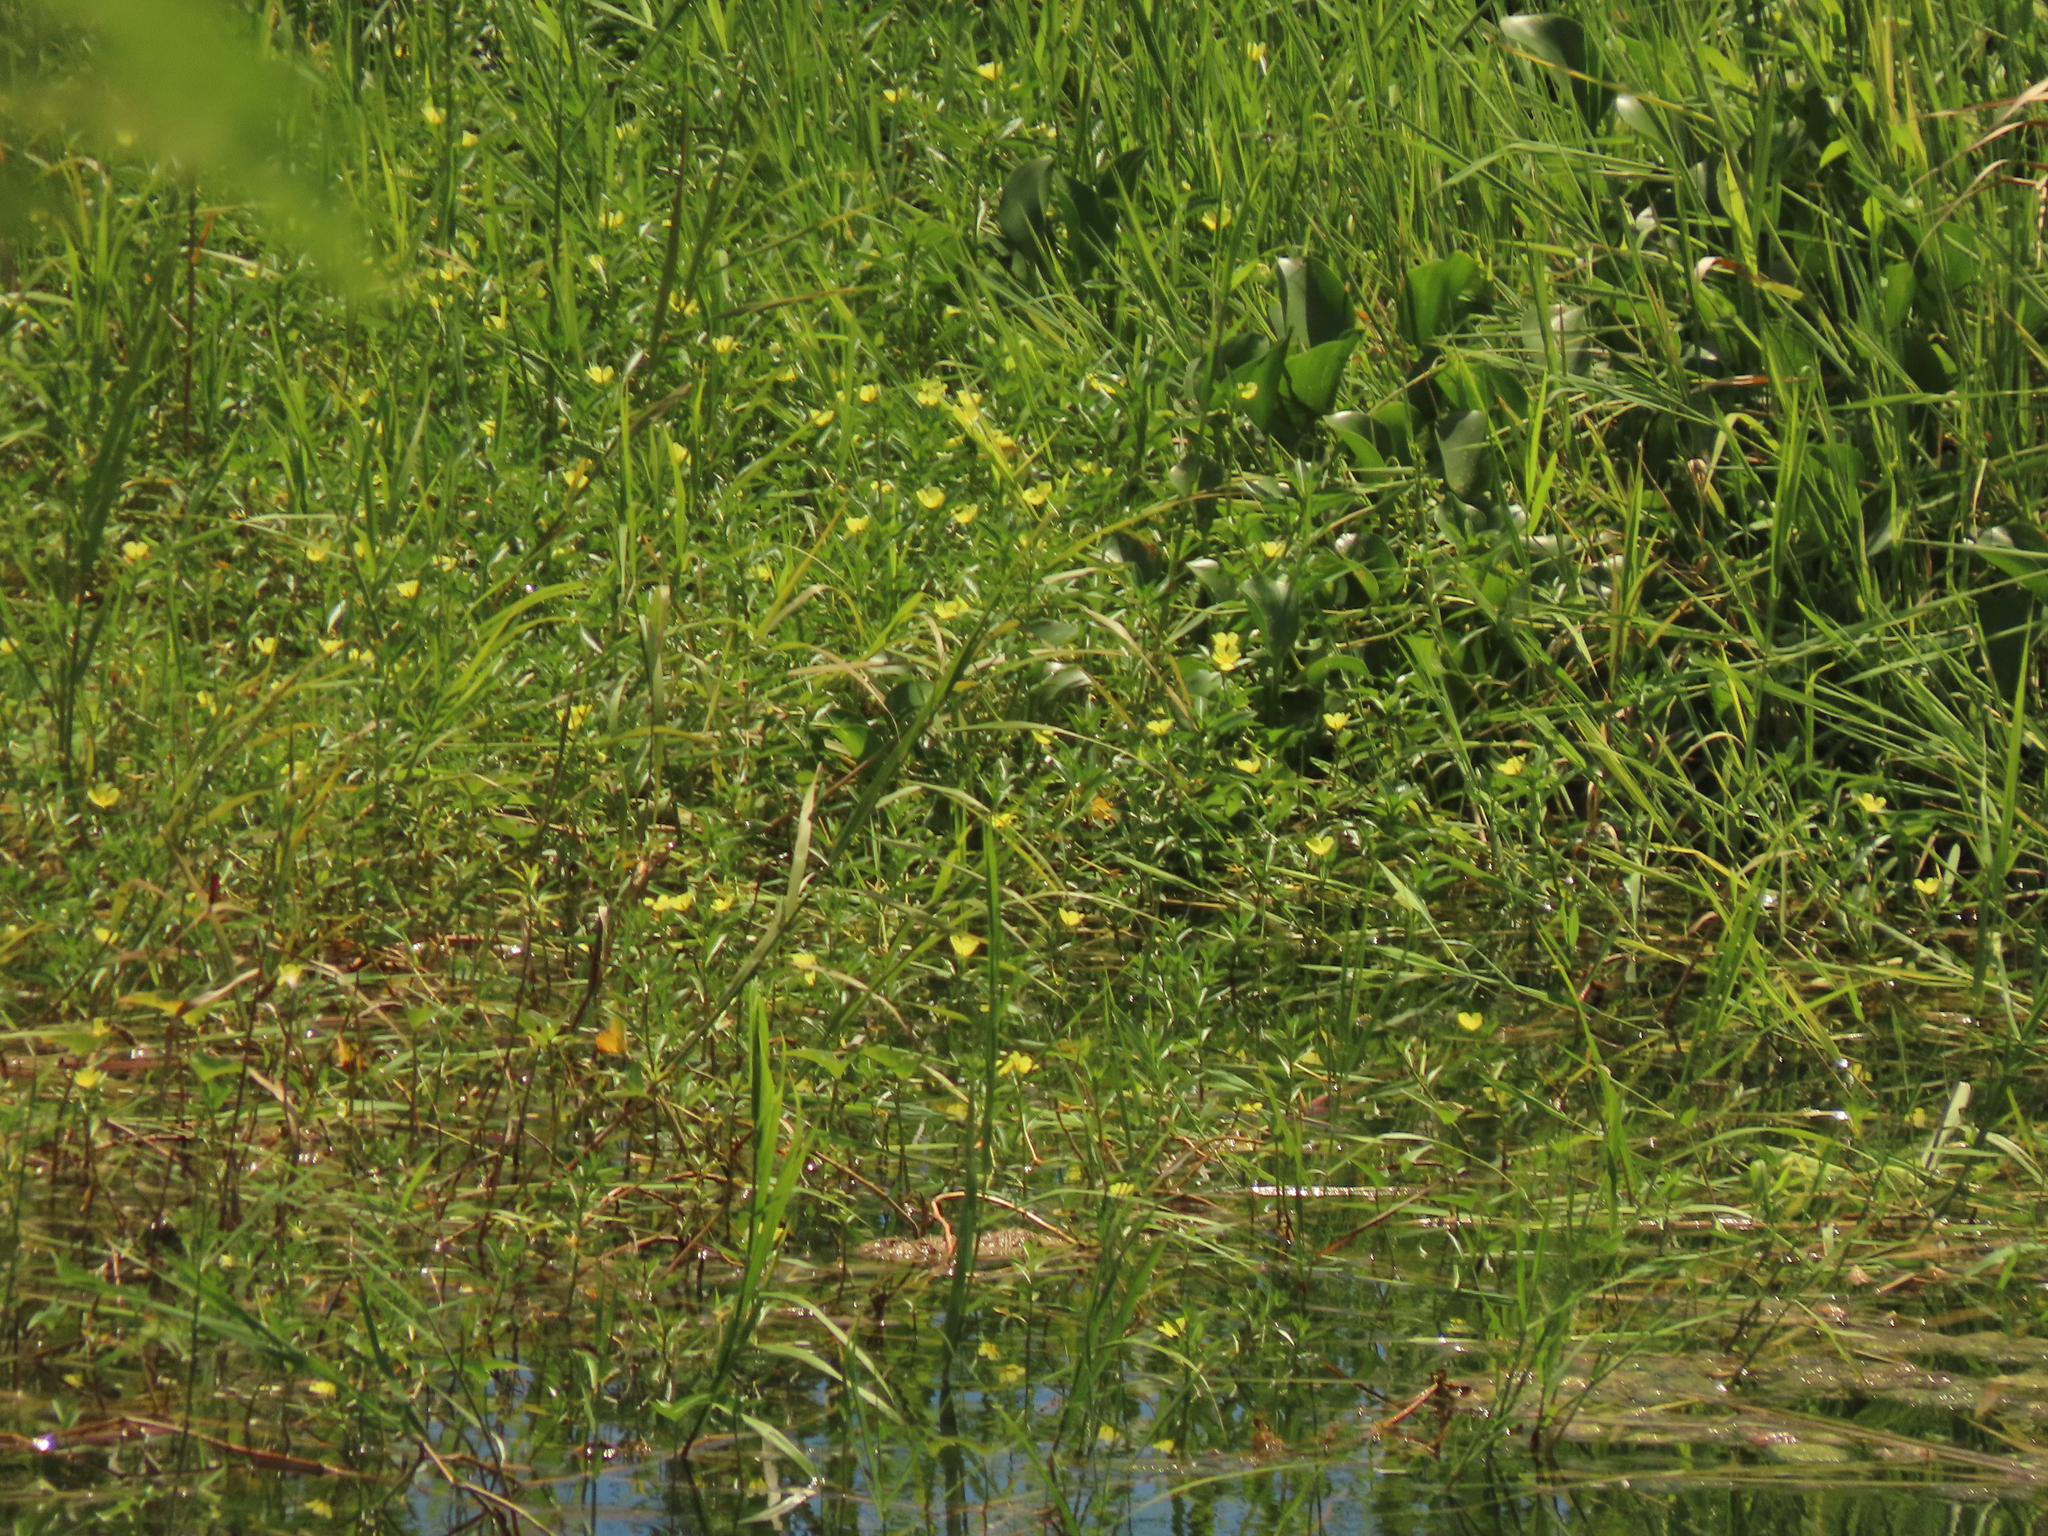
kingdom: Plantae
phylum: Tracheophyta
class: Magnoliopsida
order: Myrtales
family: Onagraceae
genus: Ludwigia
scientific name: Ludwigia taiwanensis
